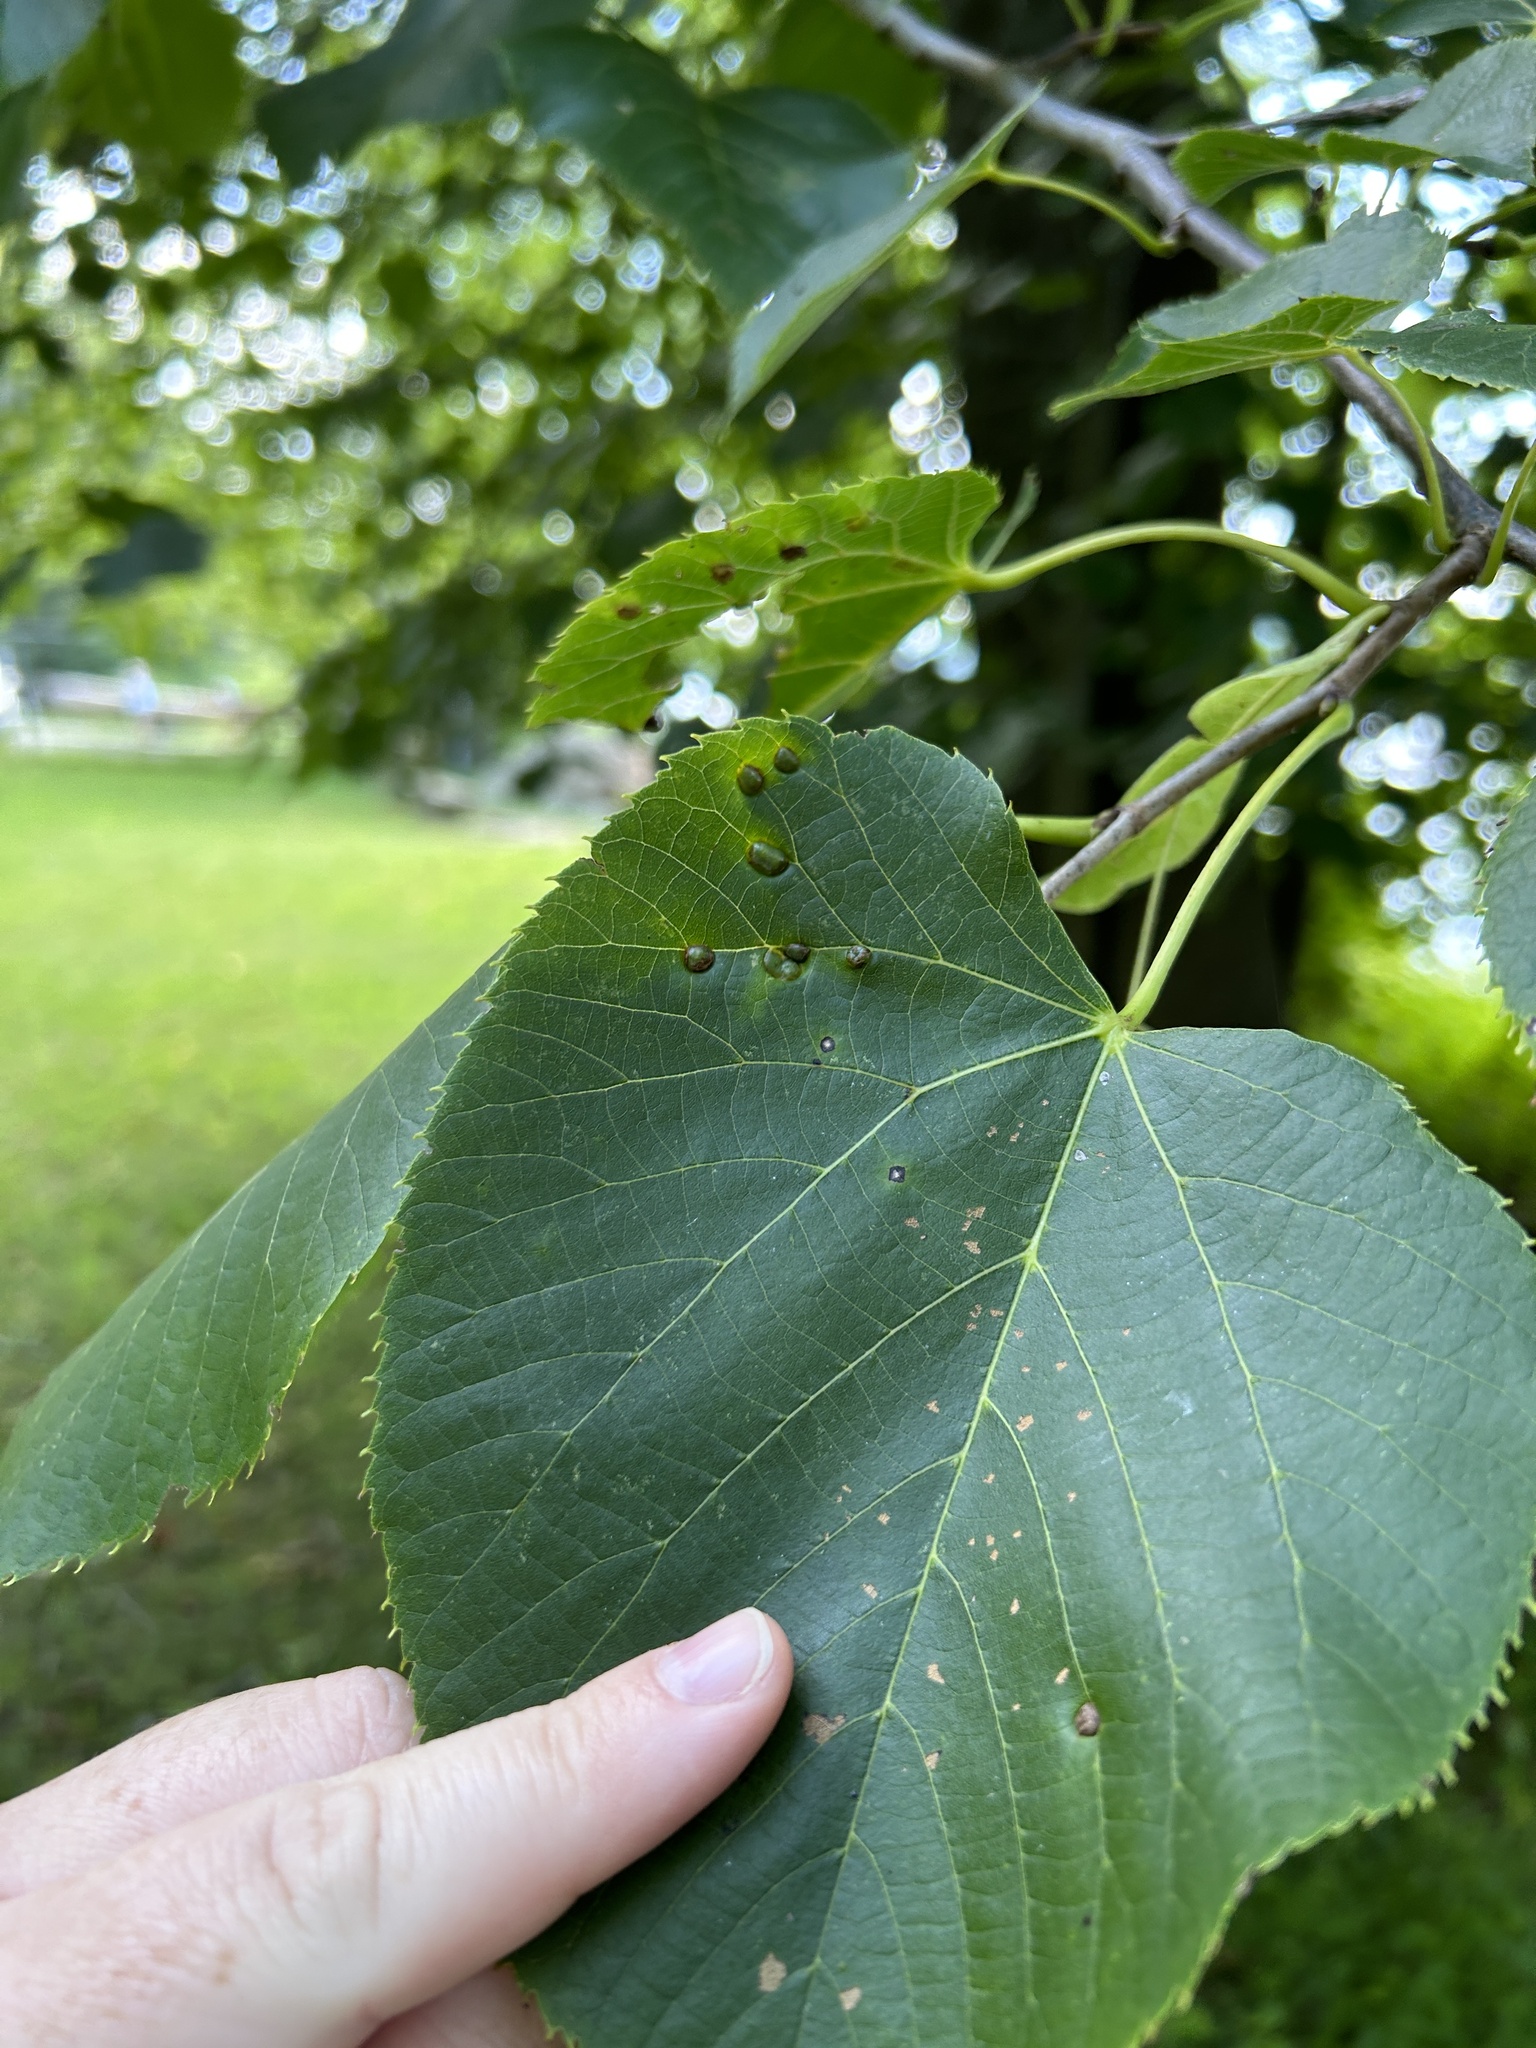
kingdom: Animalia
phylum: Arthropoda
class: Insecta
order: Diptera
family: Cecidomyiidae
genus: Contarinia
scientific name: Contarinia verrucicola
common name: Linden wart gall midge
